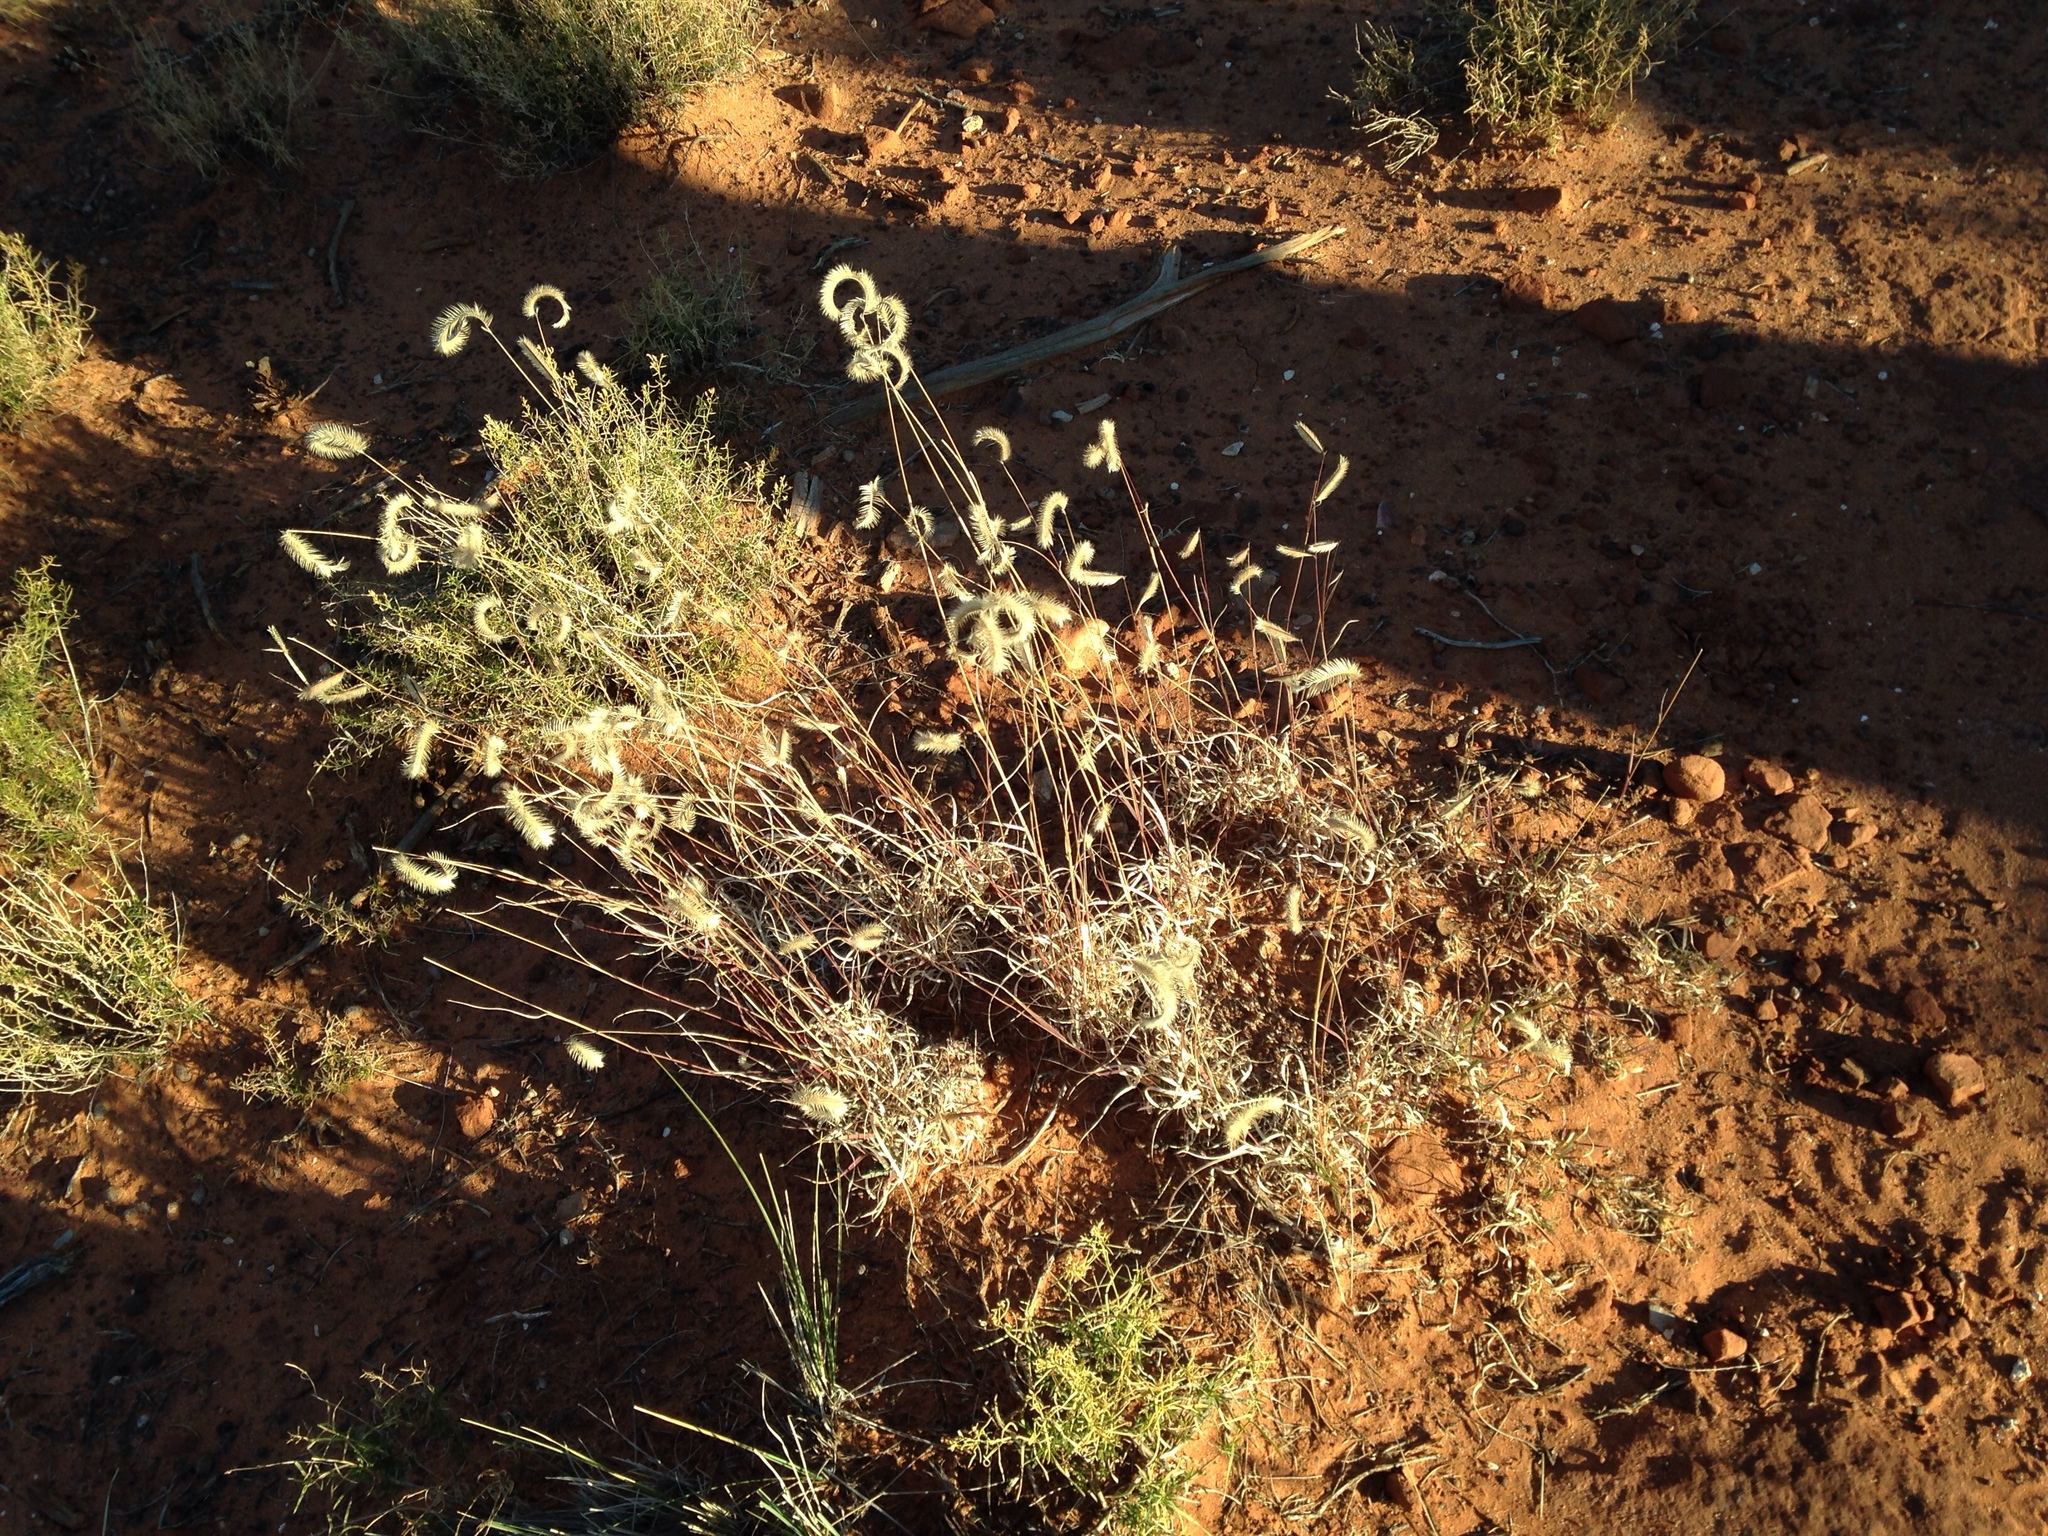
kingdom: Plantae
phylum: Tracheophyta
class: Liliopsida
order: Poales
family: Poaceae
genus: Bouteloua
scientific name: Bouteloua gracilis
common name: Blue grama
